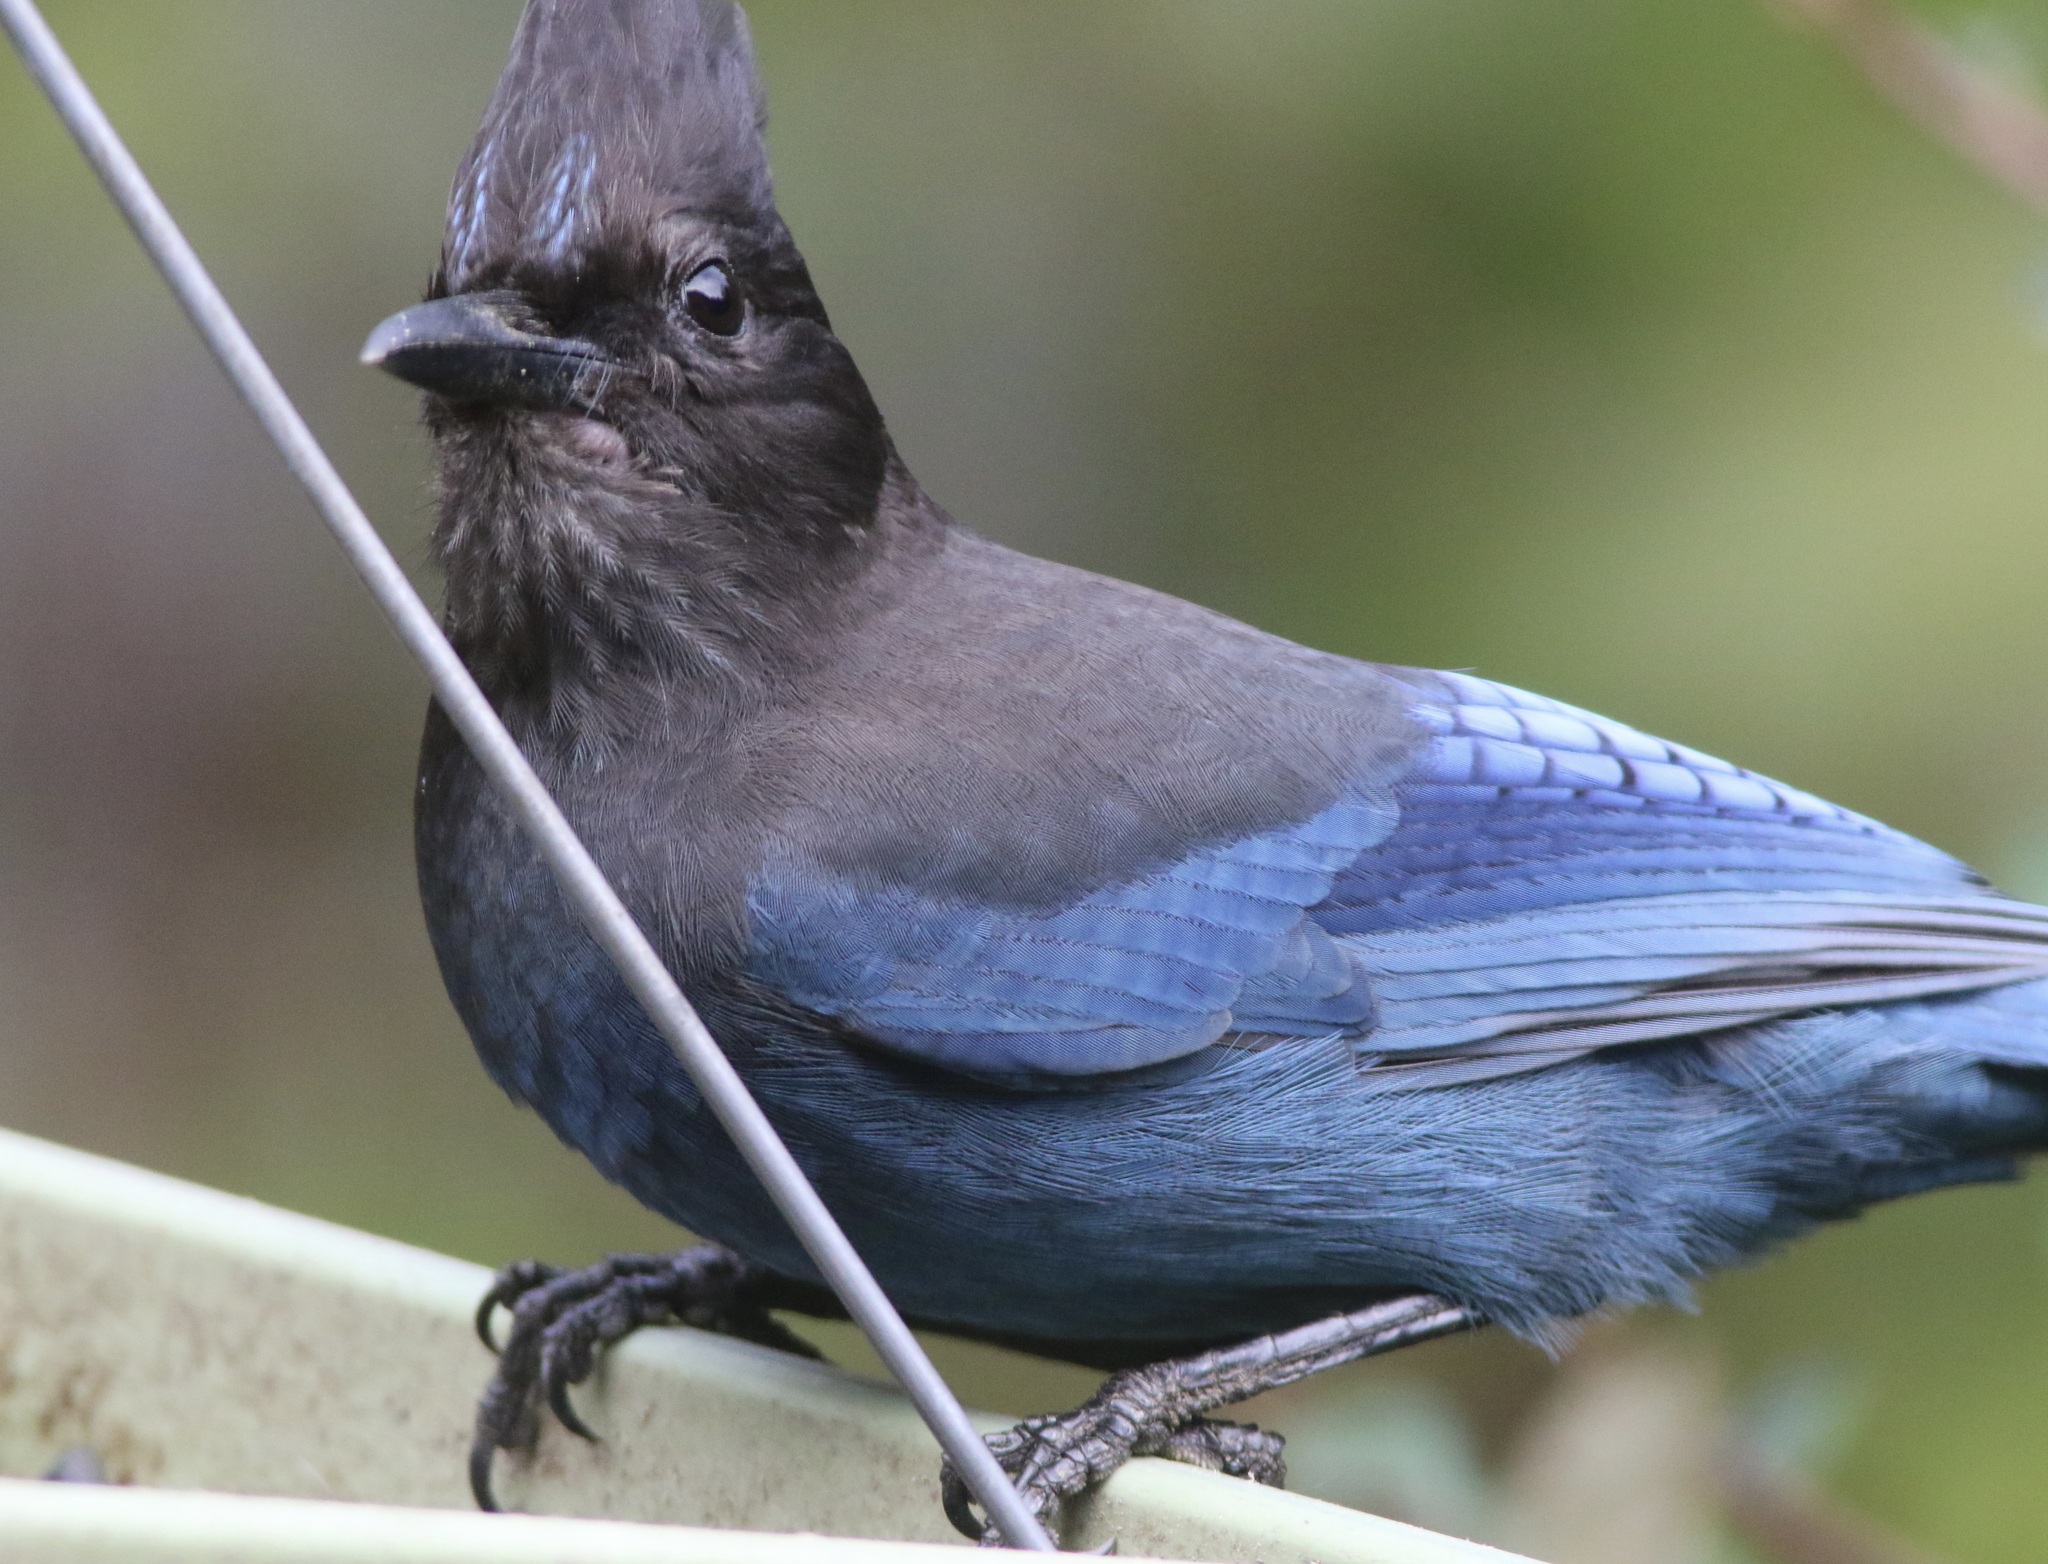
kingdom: Animalia
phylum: Chordata
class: Aves
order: Passeriformes
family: Corvidae
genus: Cyanocitta
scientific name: Cyanocitta stelleri
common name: Steller's jay
